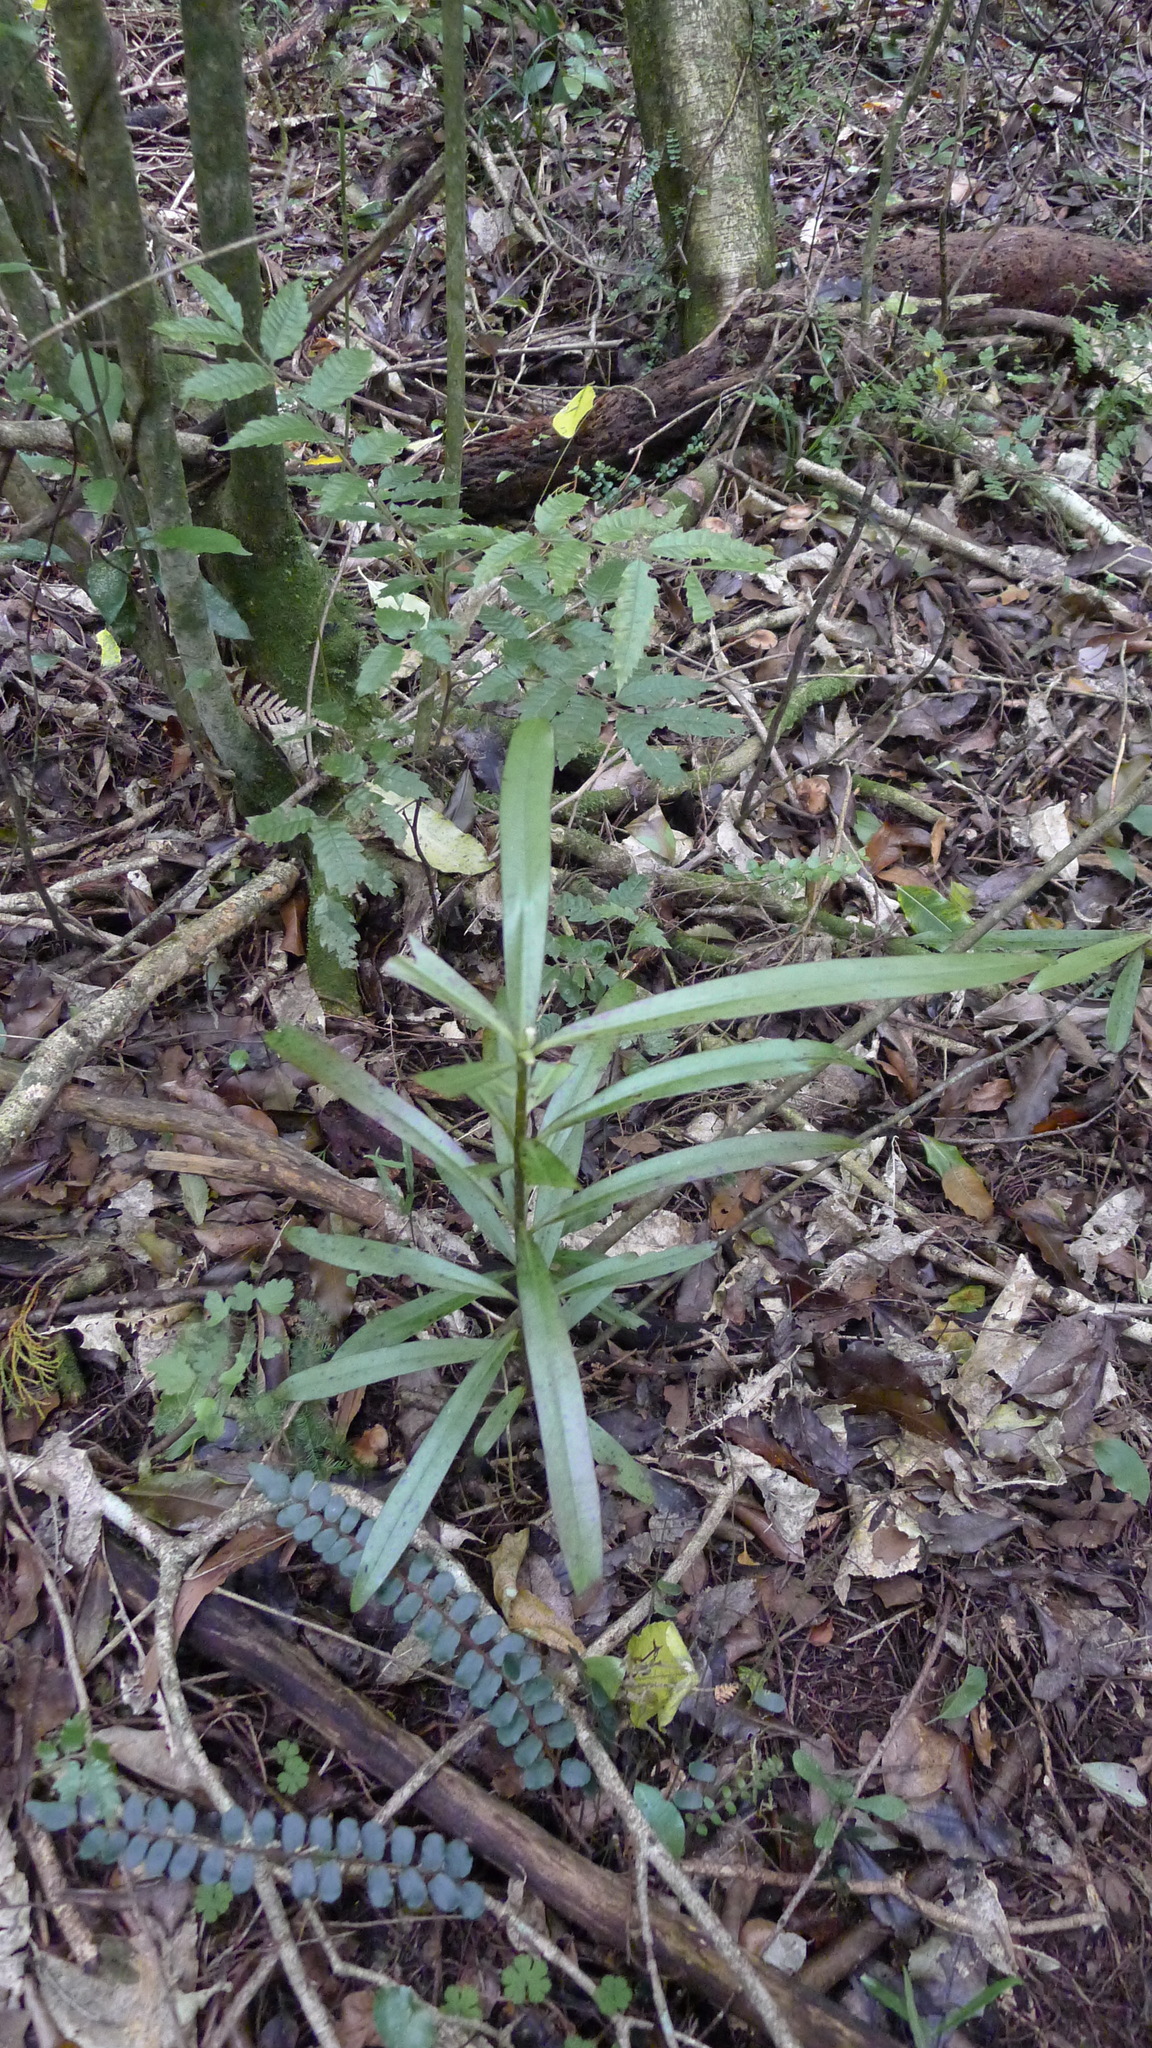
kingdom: Plantae
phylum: Tracheophyta
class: Magnoliopsida
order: Ericales
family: Primulaceae
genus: Myrsine
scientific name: Myrsine salicina
